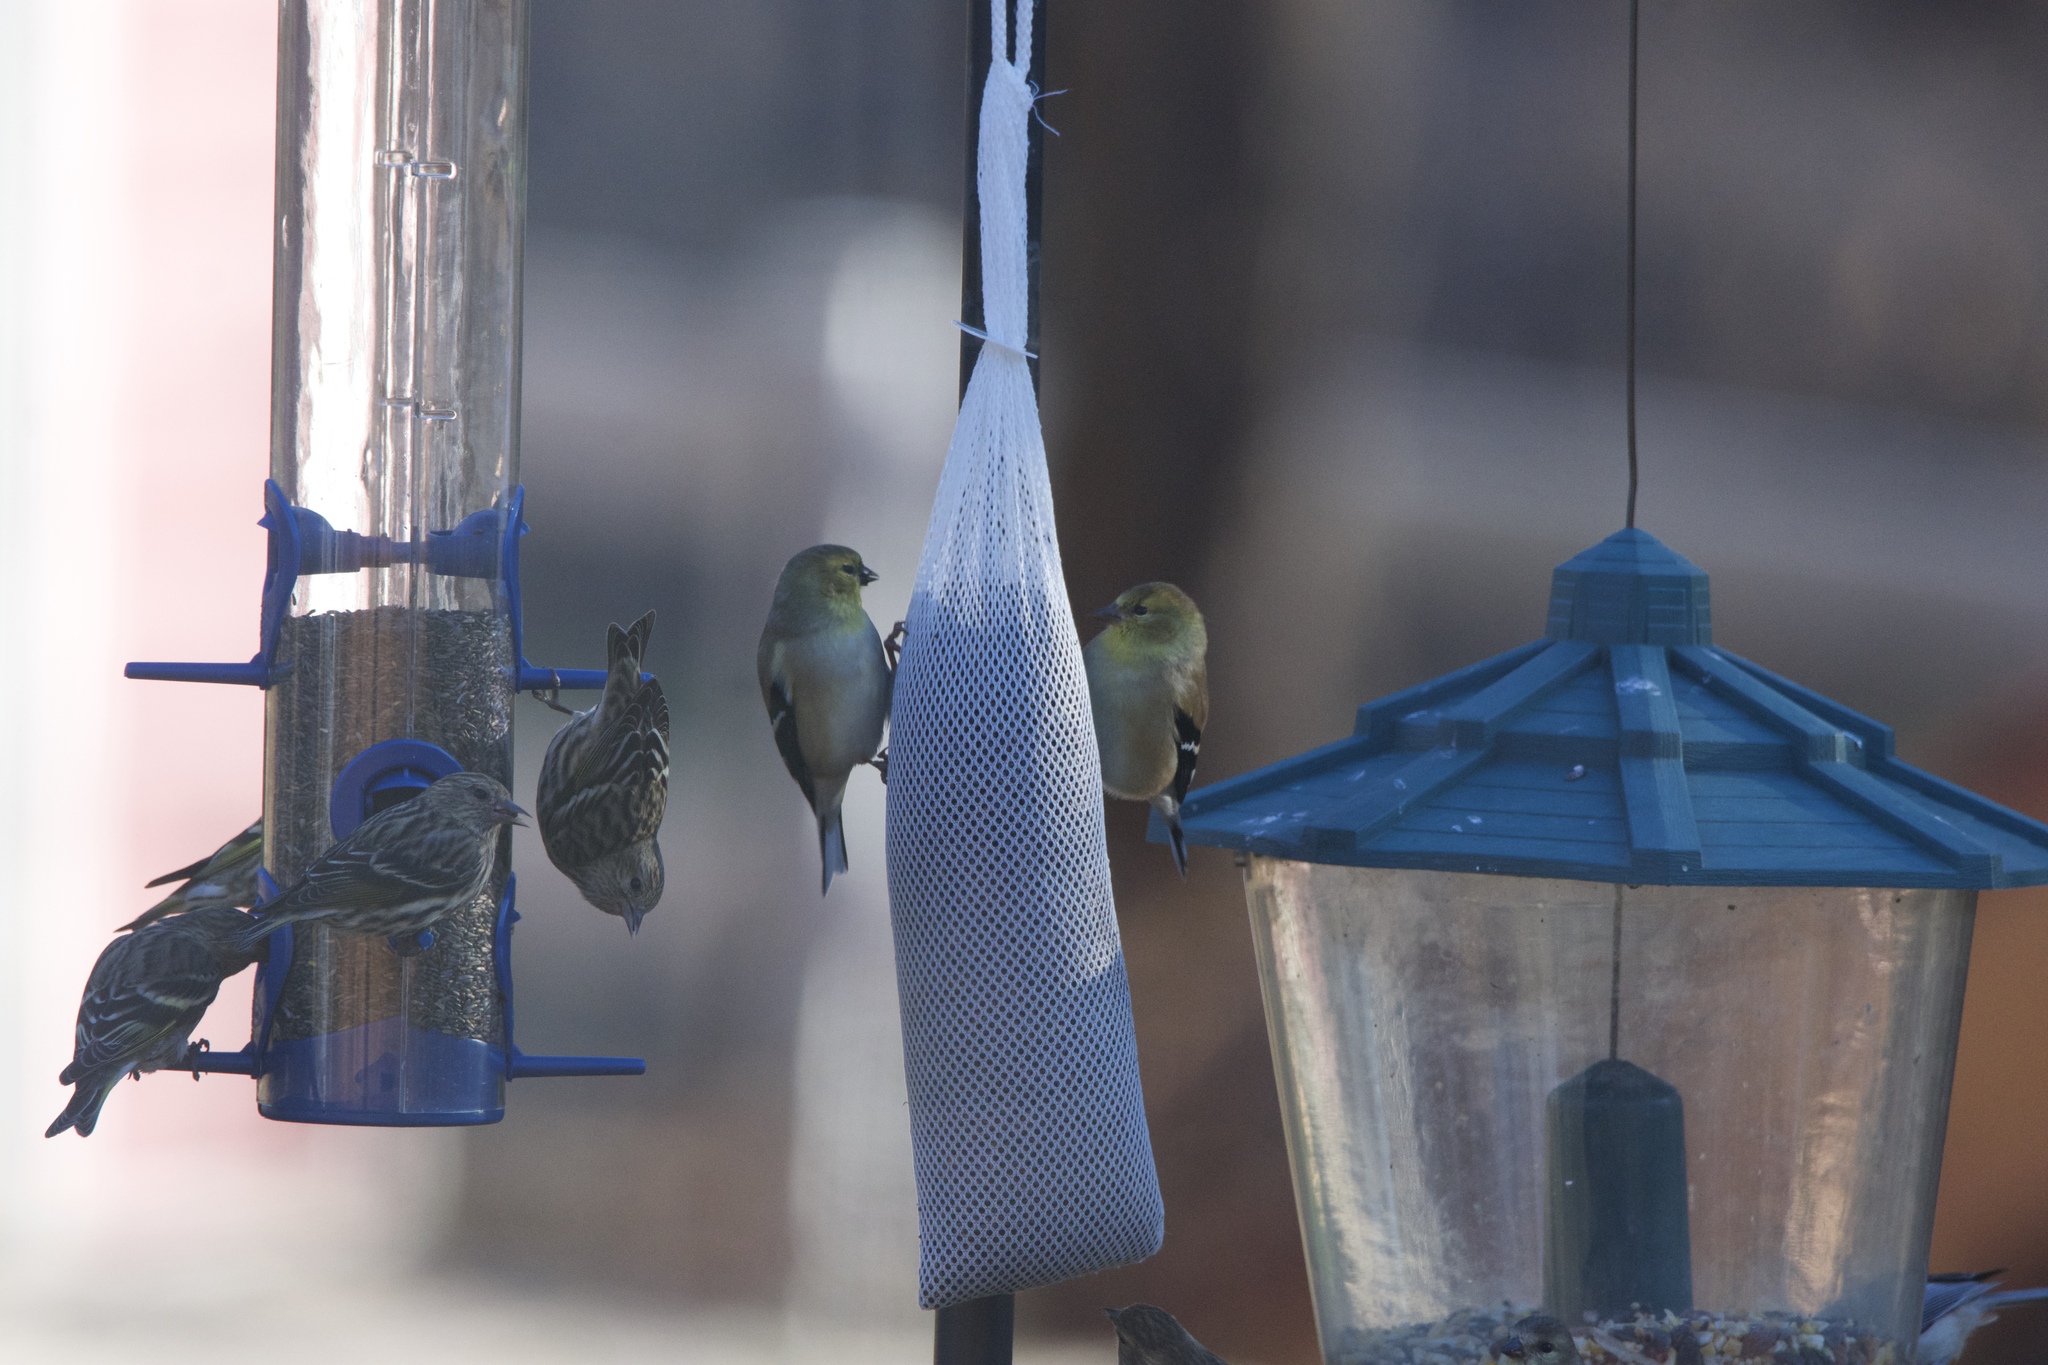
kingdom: Animalia
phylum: Chordata
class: Aves
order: Passeriformes
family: Fringillidae
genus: Spinus
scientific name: Spinus tristis
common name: American goldfinch
